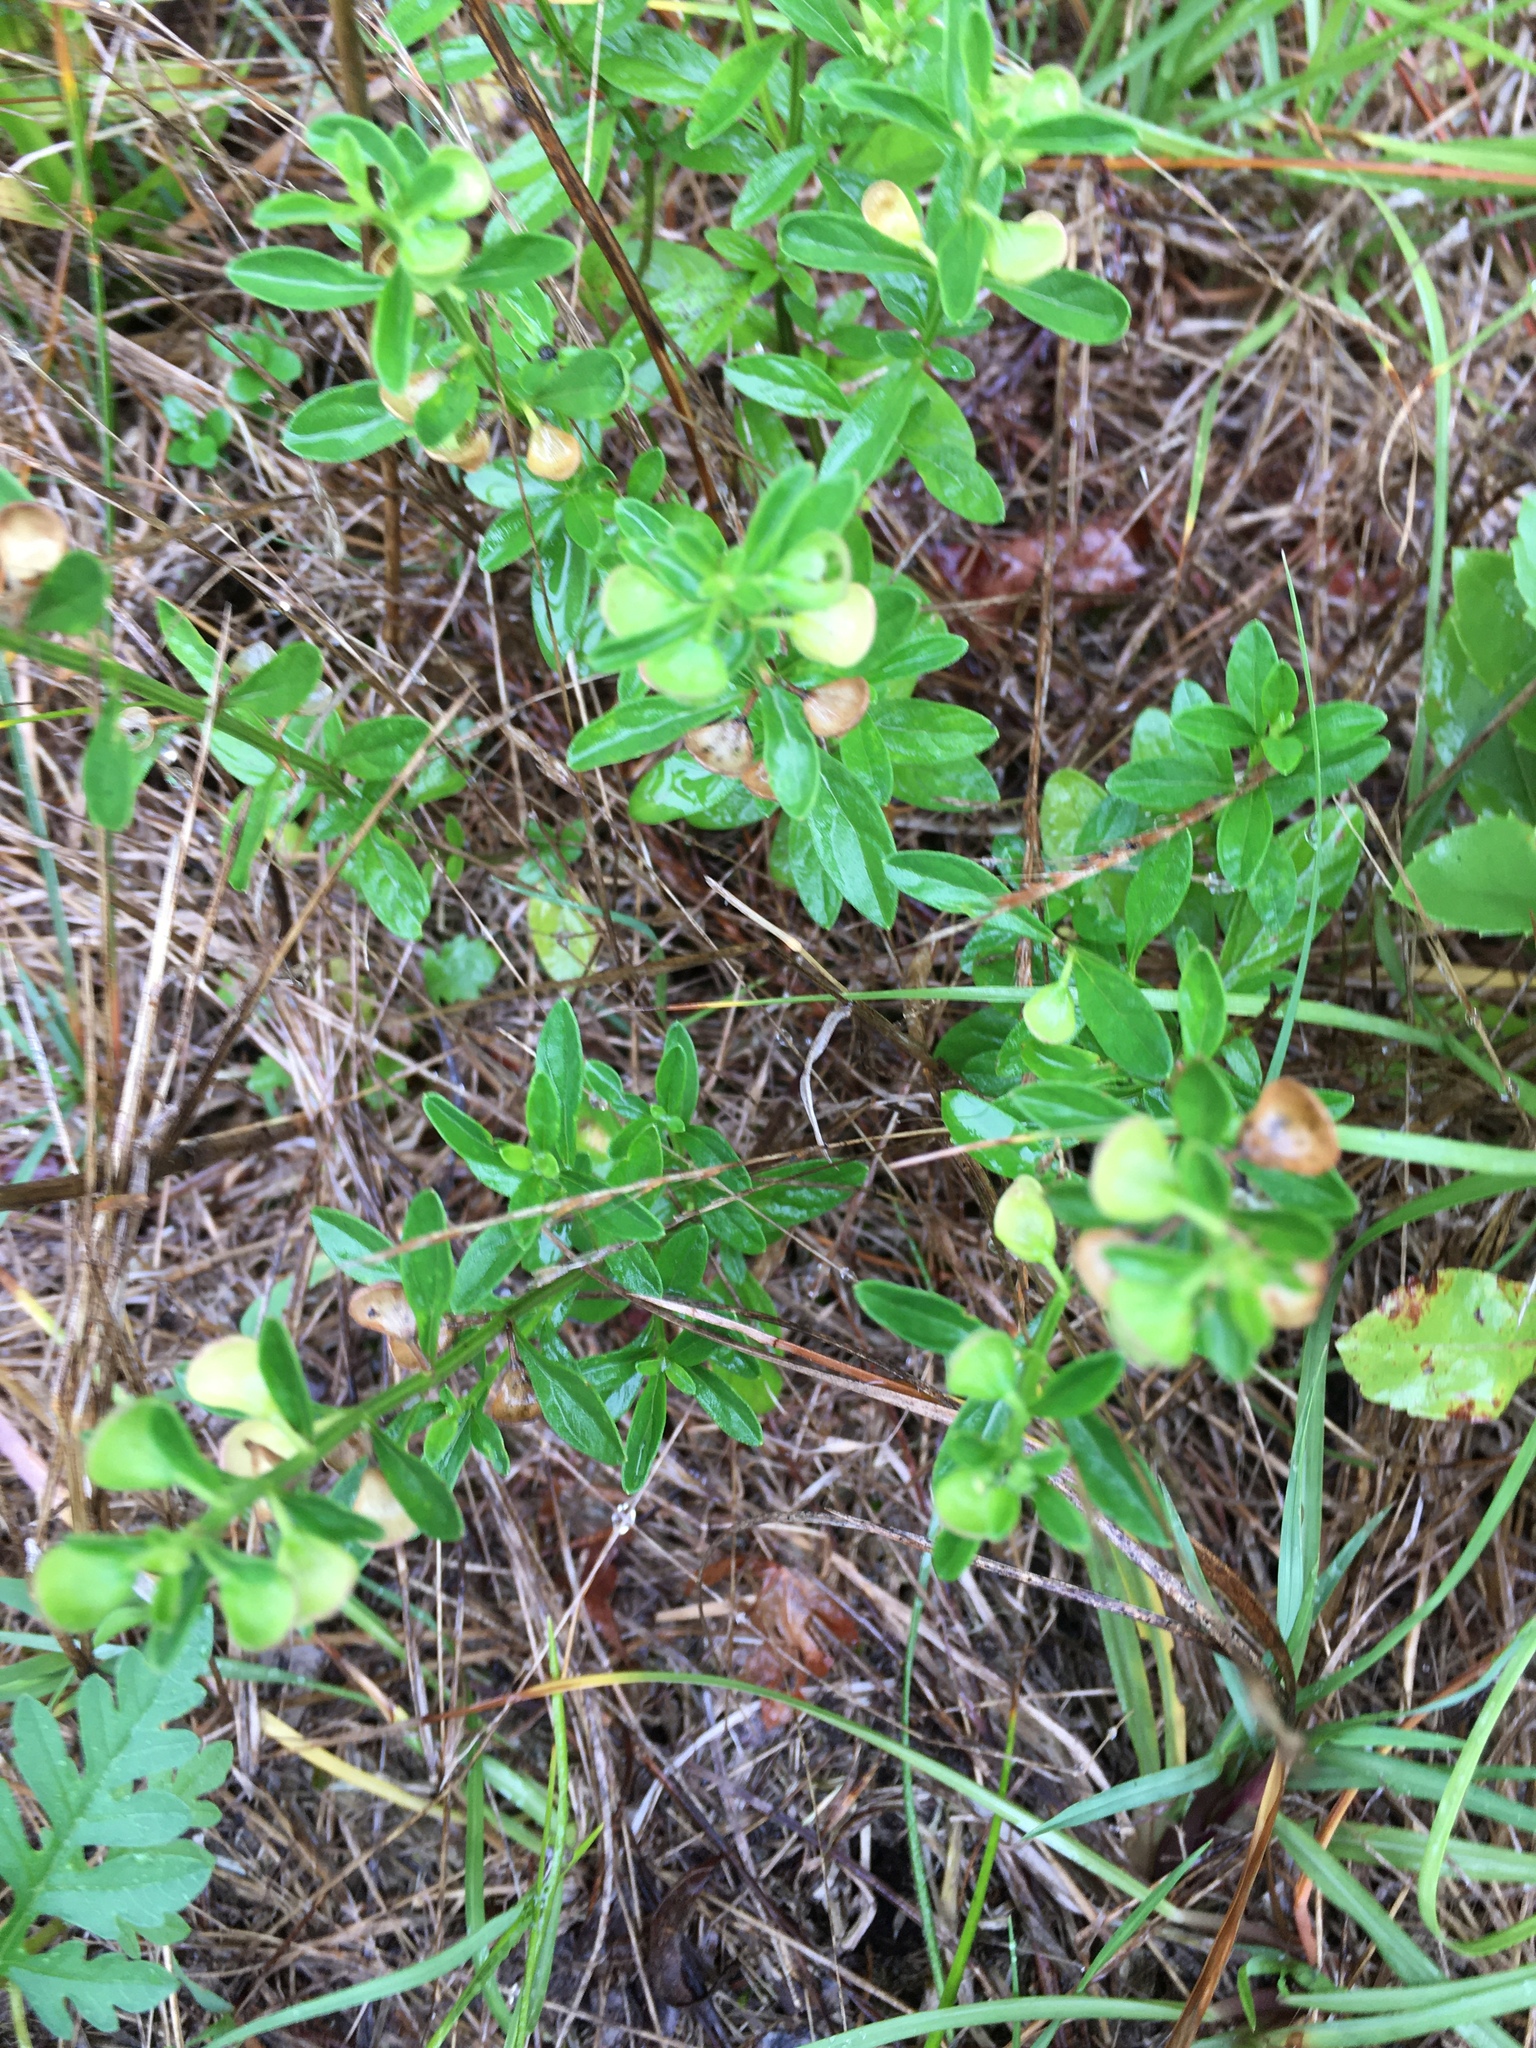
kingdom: Plantae
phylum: Tracheophyta
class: Magnoliopsida
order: Lamiales
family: Lamiaceae
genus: Scutellaria
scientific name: Scutellaria integrifolia
